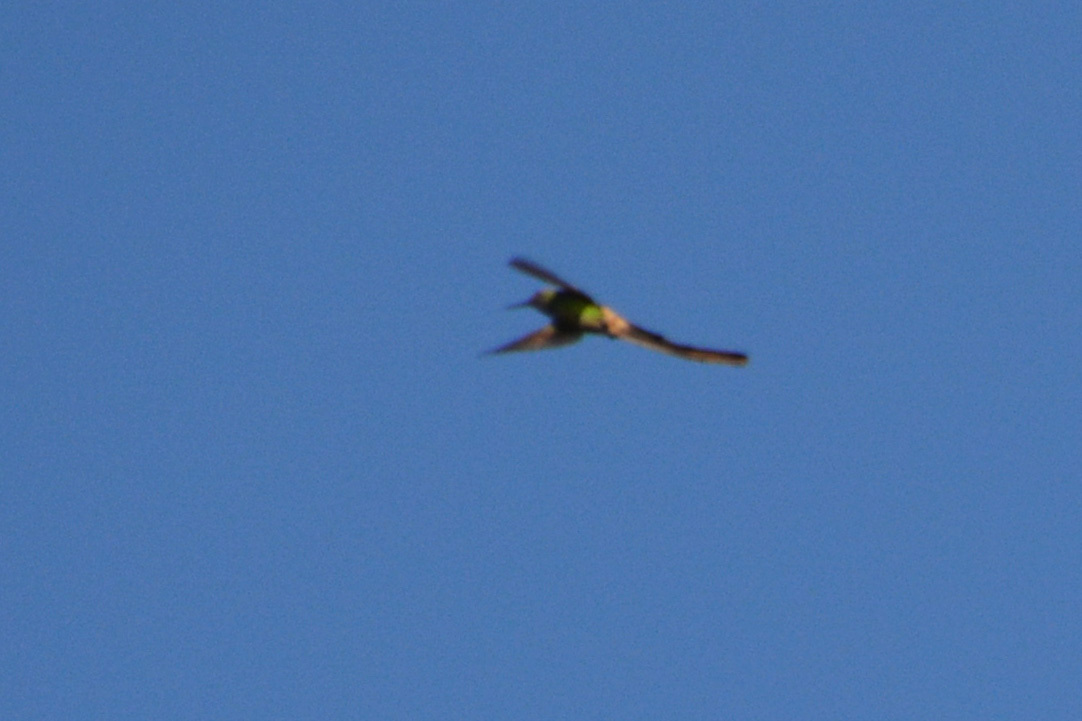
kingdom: Animalia
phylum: Chordata
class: Aves
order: Apodiformes
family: Trochilidae
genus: Sappho
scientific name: Sappho sparganurus
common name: Red-tailed comet
